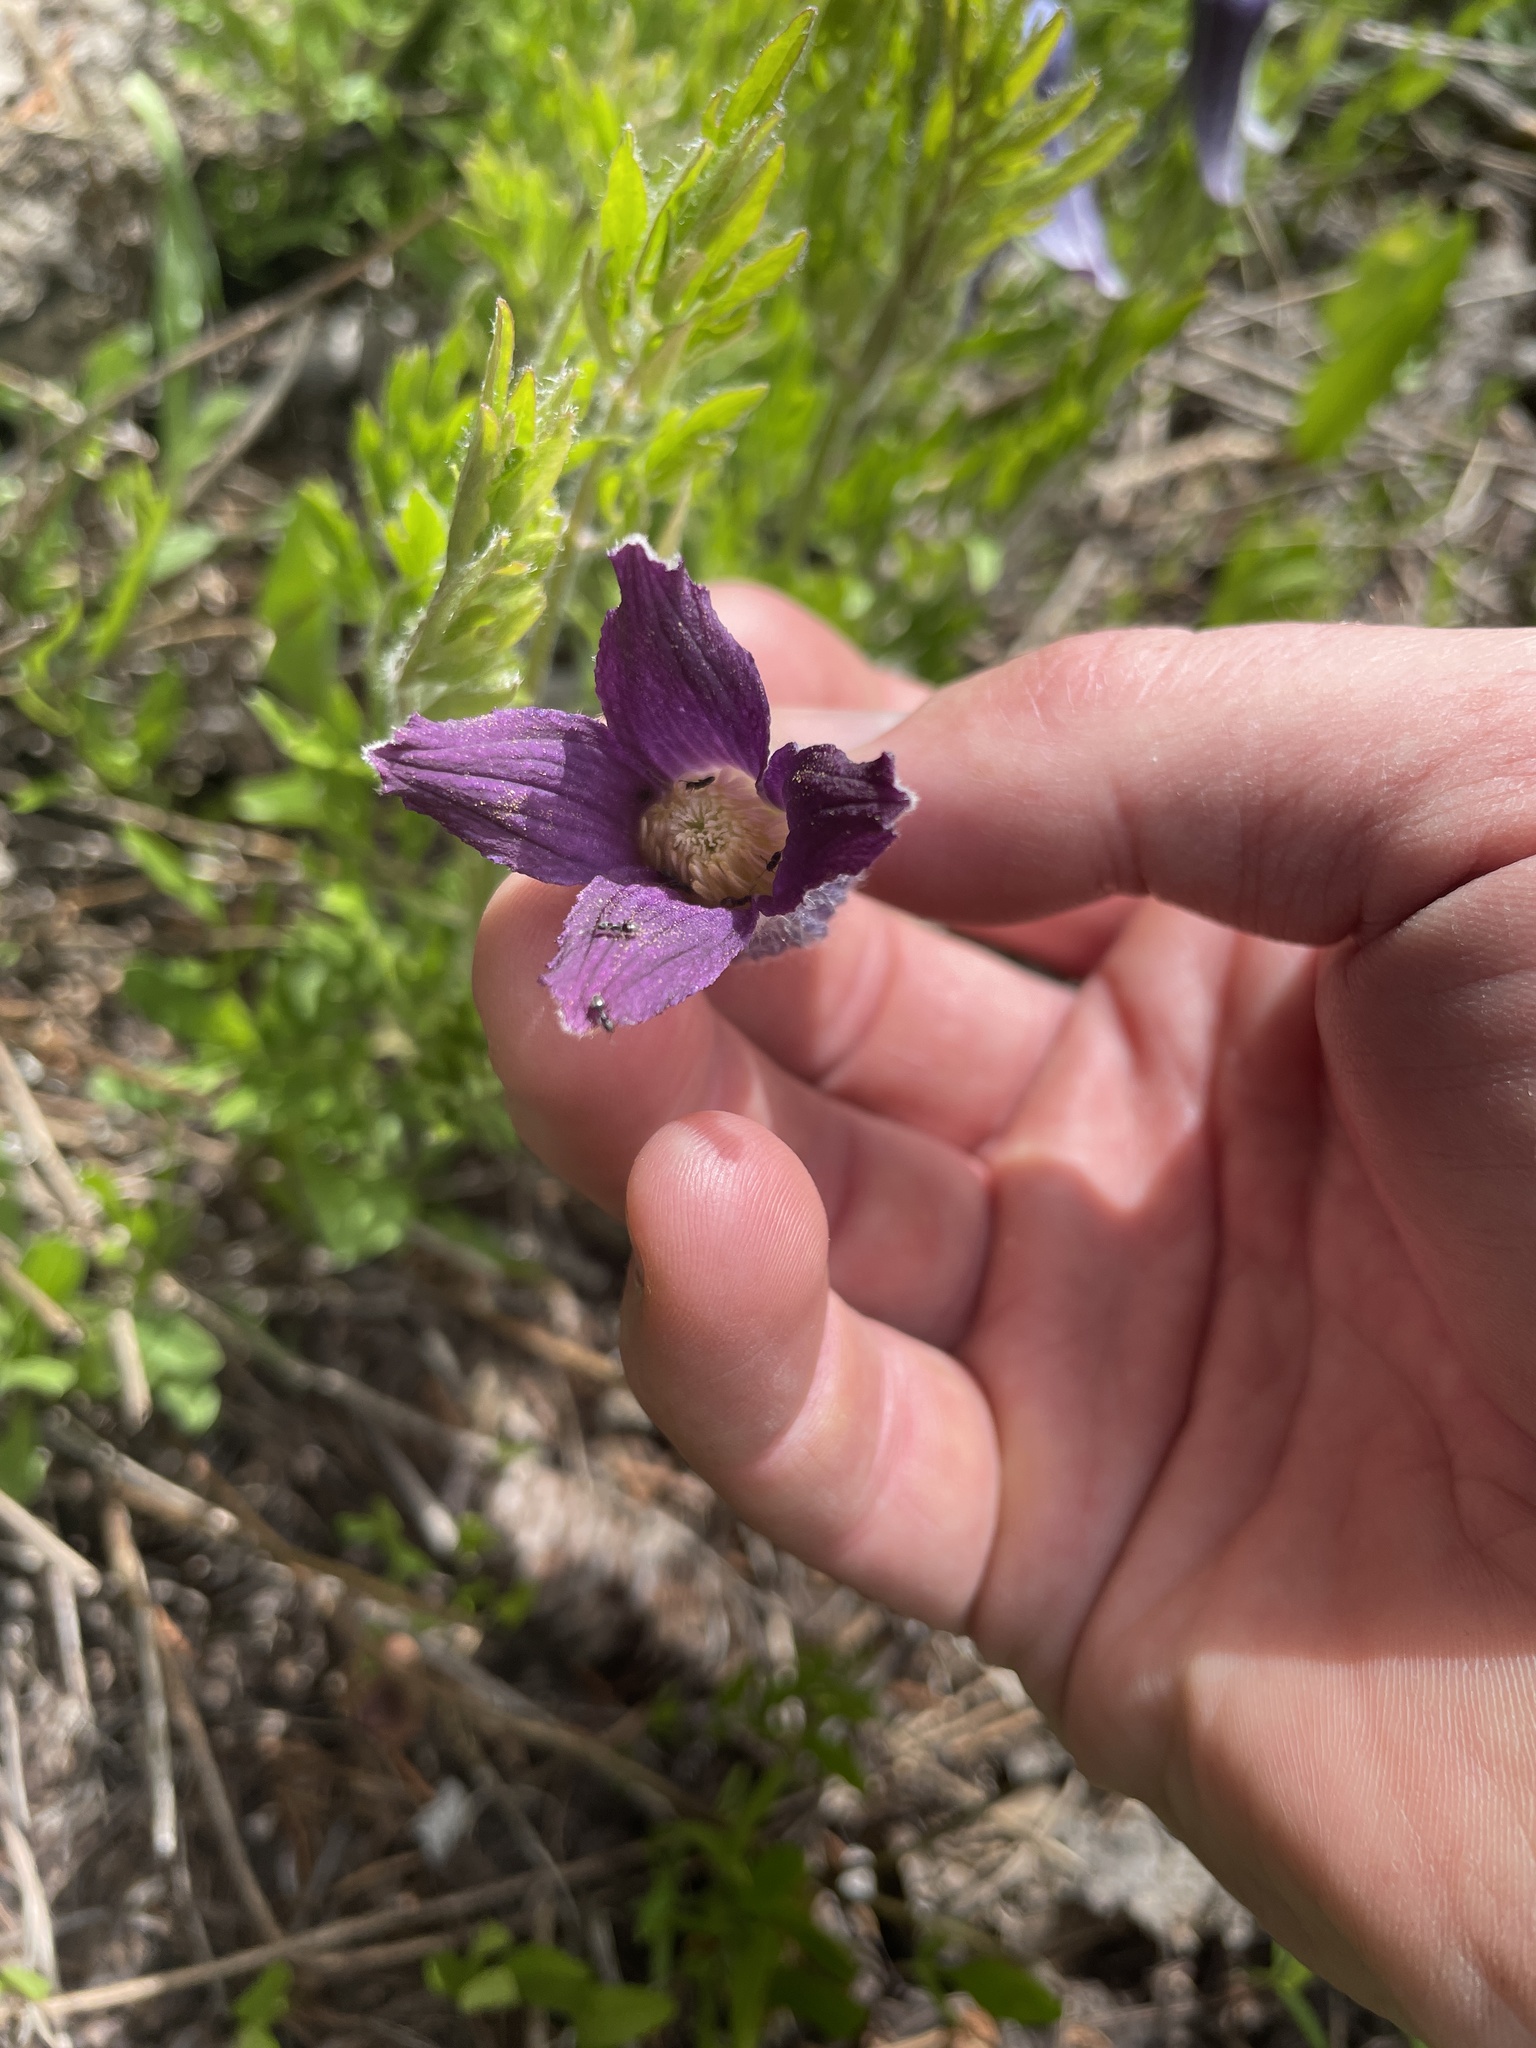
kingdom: Plantae
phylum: Tracheophyta
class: Magnoliopsida
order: Ranunculales
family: Ranunculaceae
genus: Clematis
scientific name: Clematis hirsutissima
